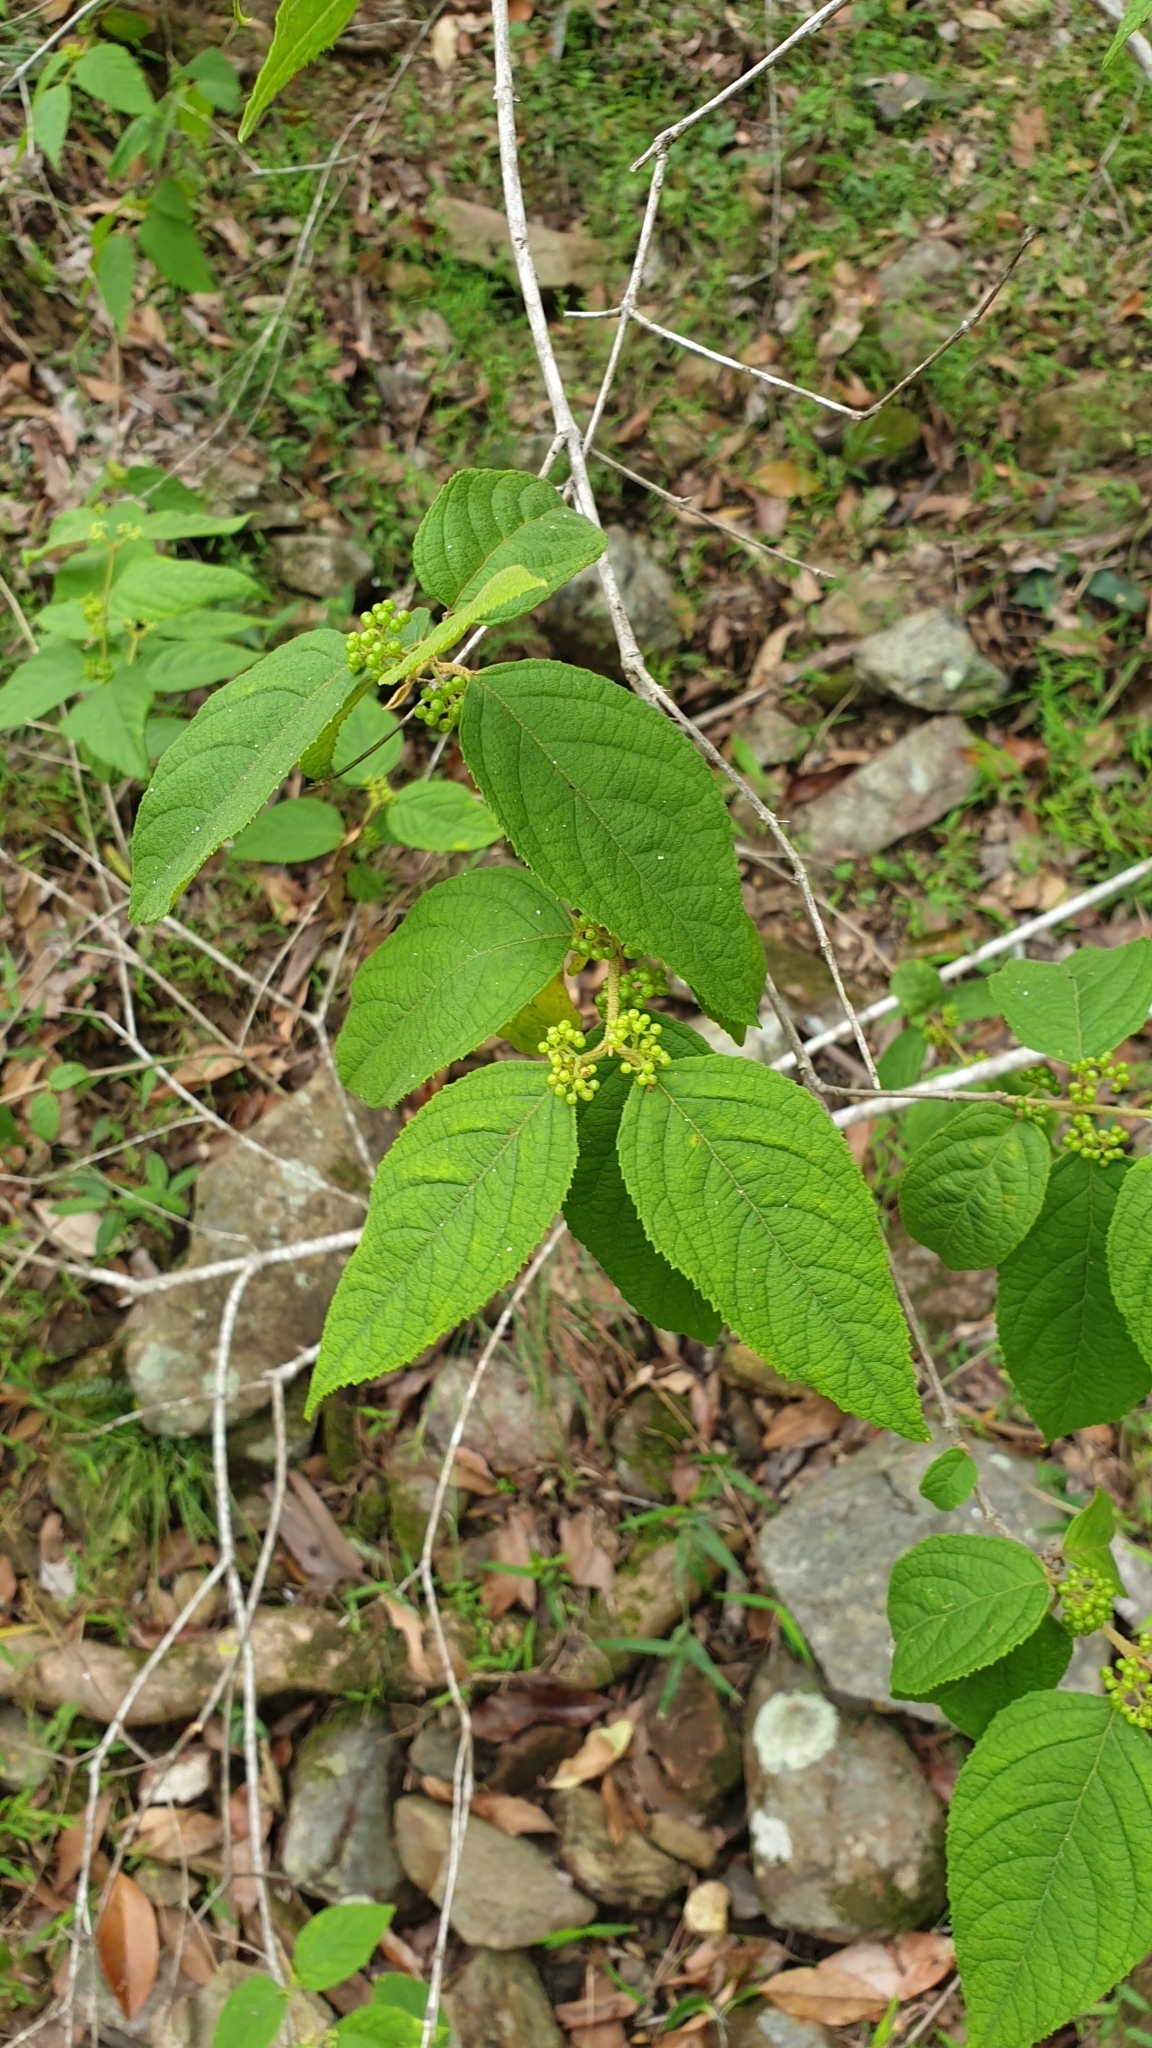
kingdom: Plantae
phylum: Tracheophyta
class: Magnoliopsida
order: Lamiales
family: Lamiaceae
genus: Callicarpa
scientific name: Callicarpa pedunculata
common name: Velvetleaf
